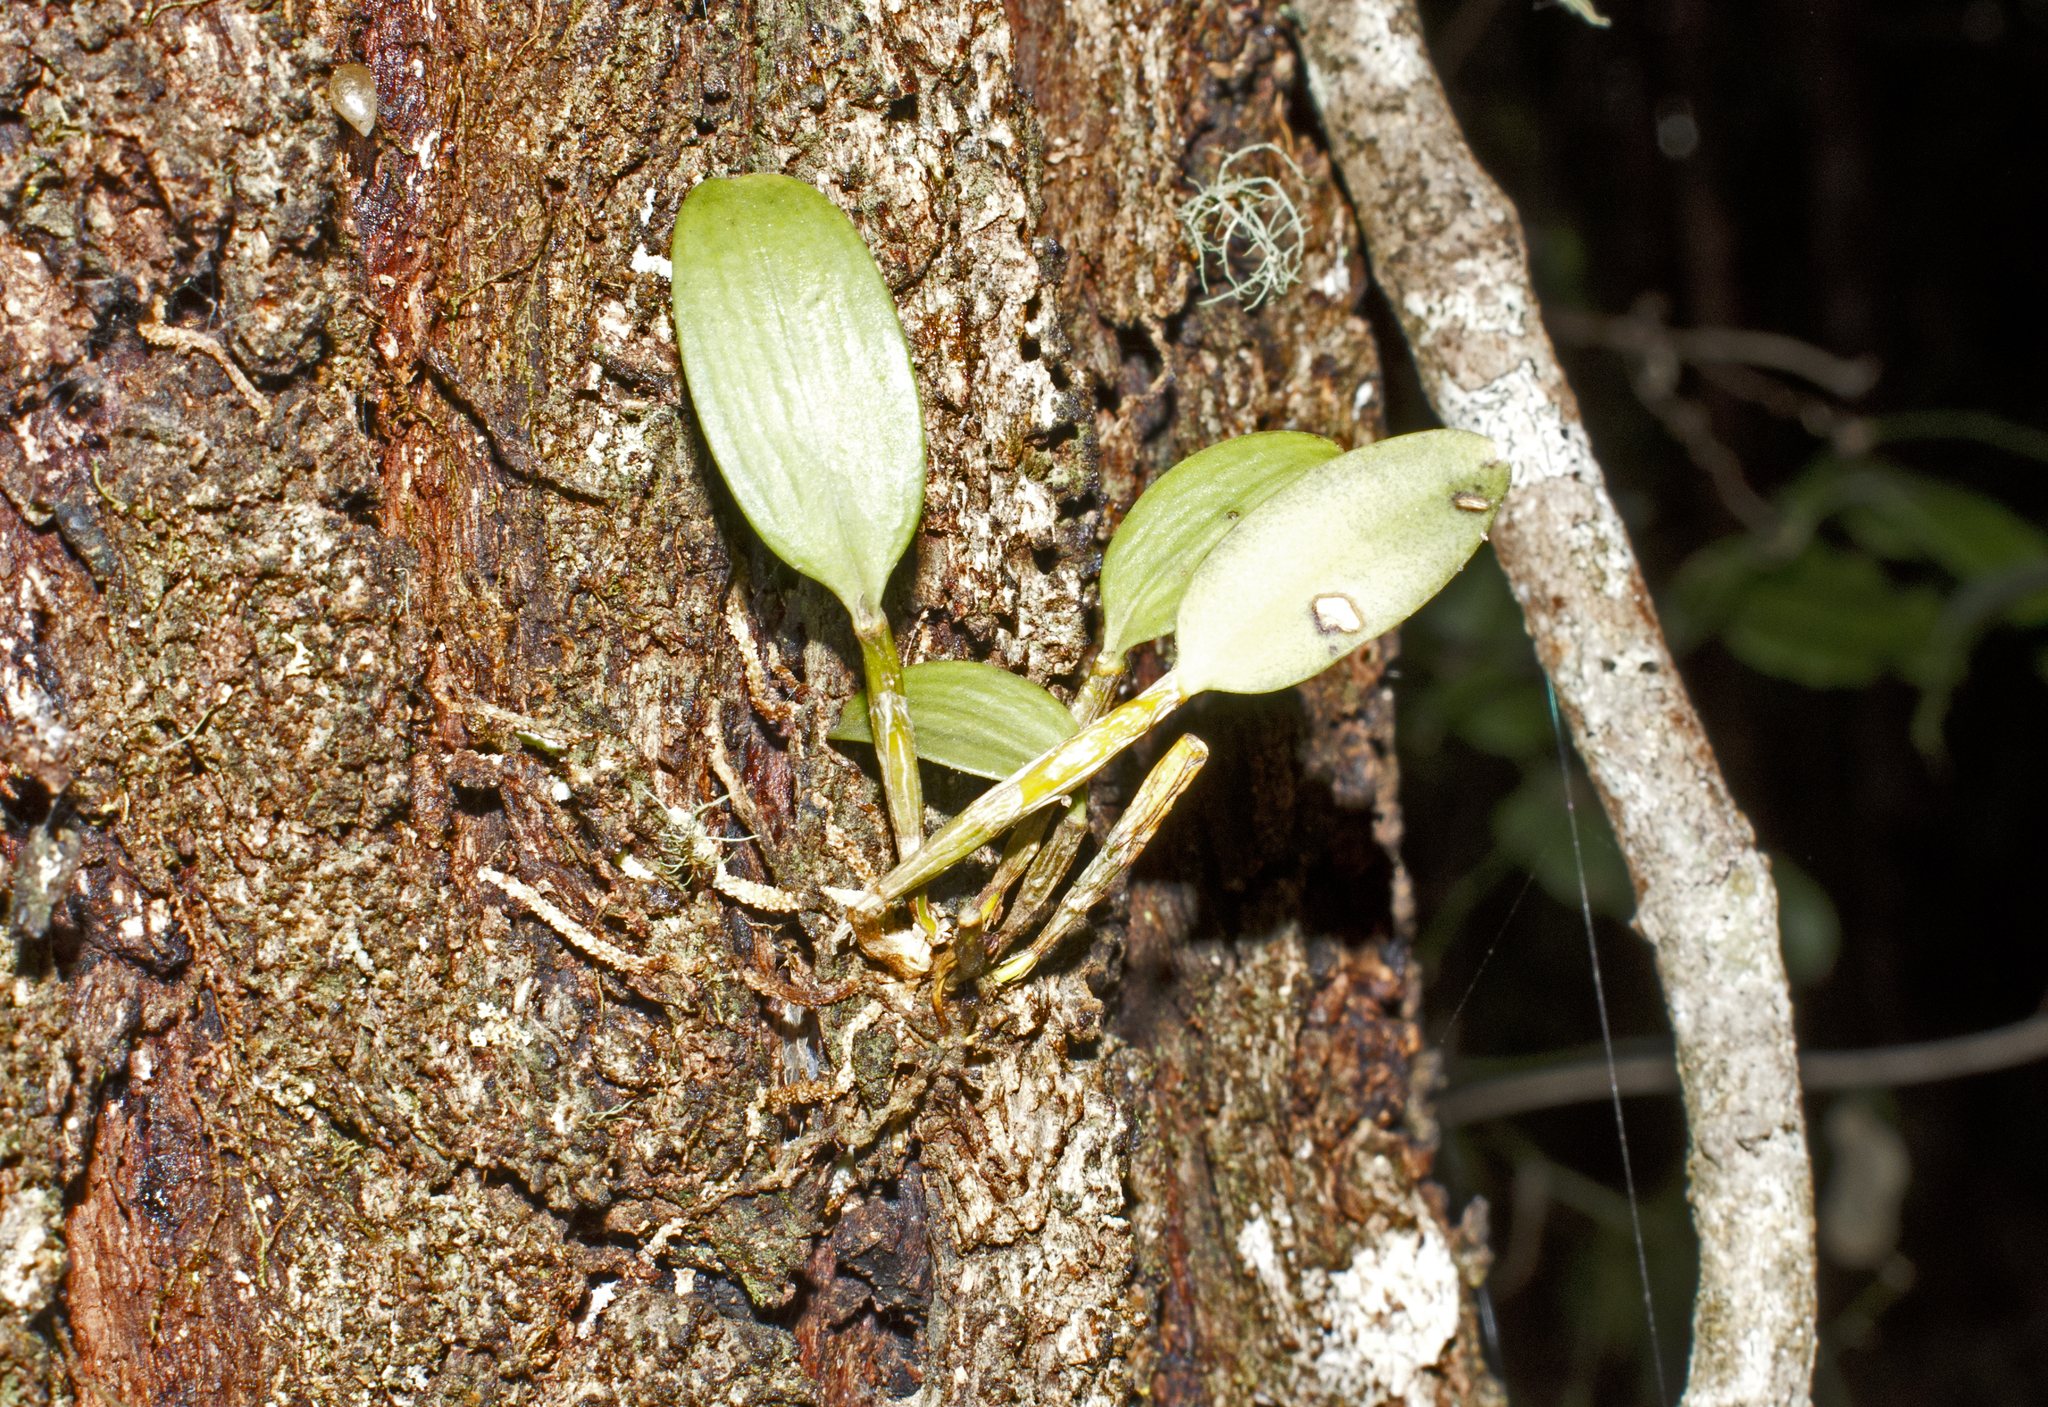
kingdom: Plantae
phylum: Tracheophyta
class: Liliopsida
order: Asparagales
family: Orchidaceae
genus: Dendrobium
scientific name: Dendrobium aemulum
